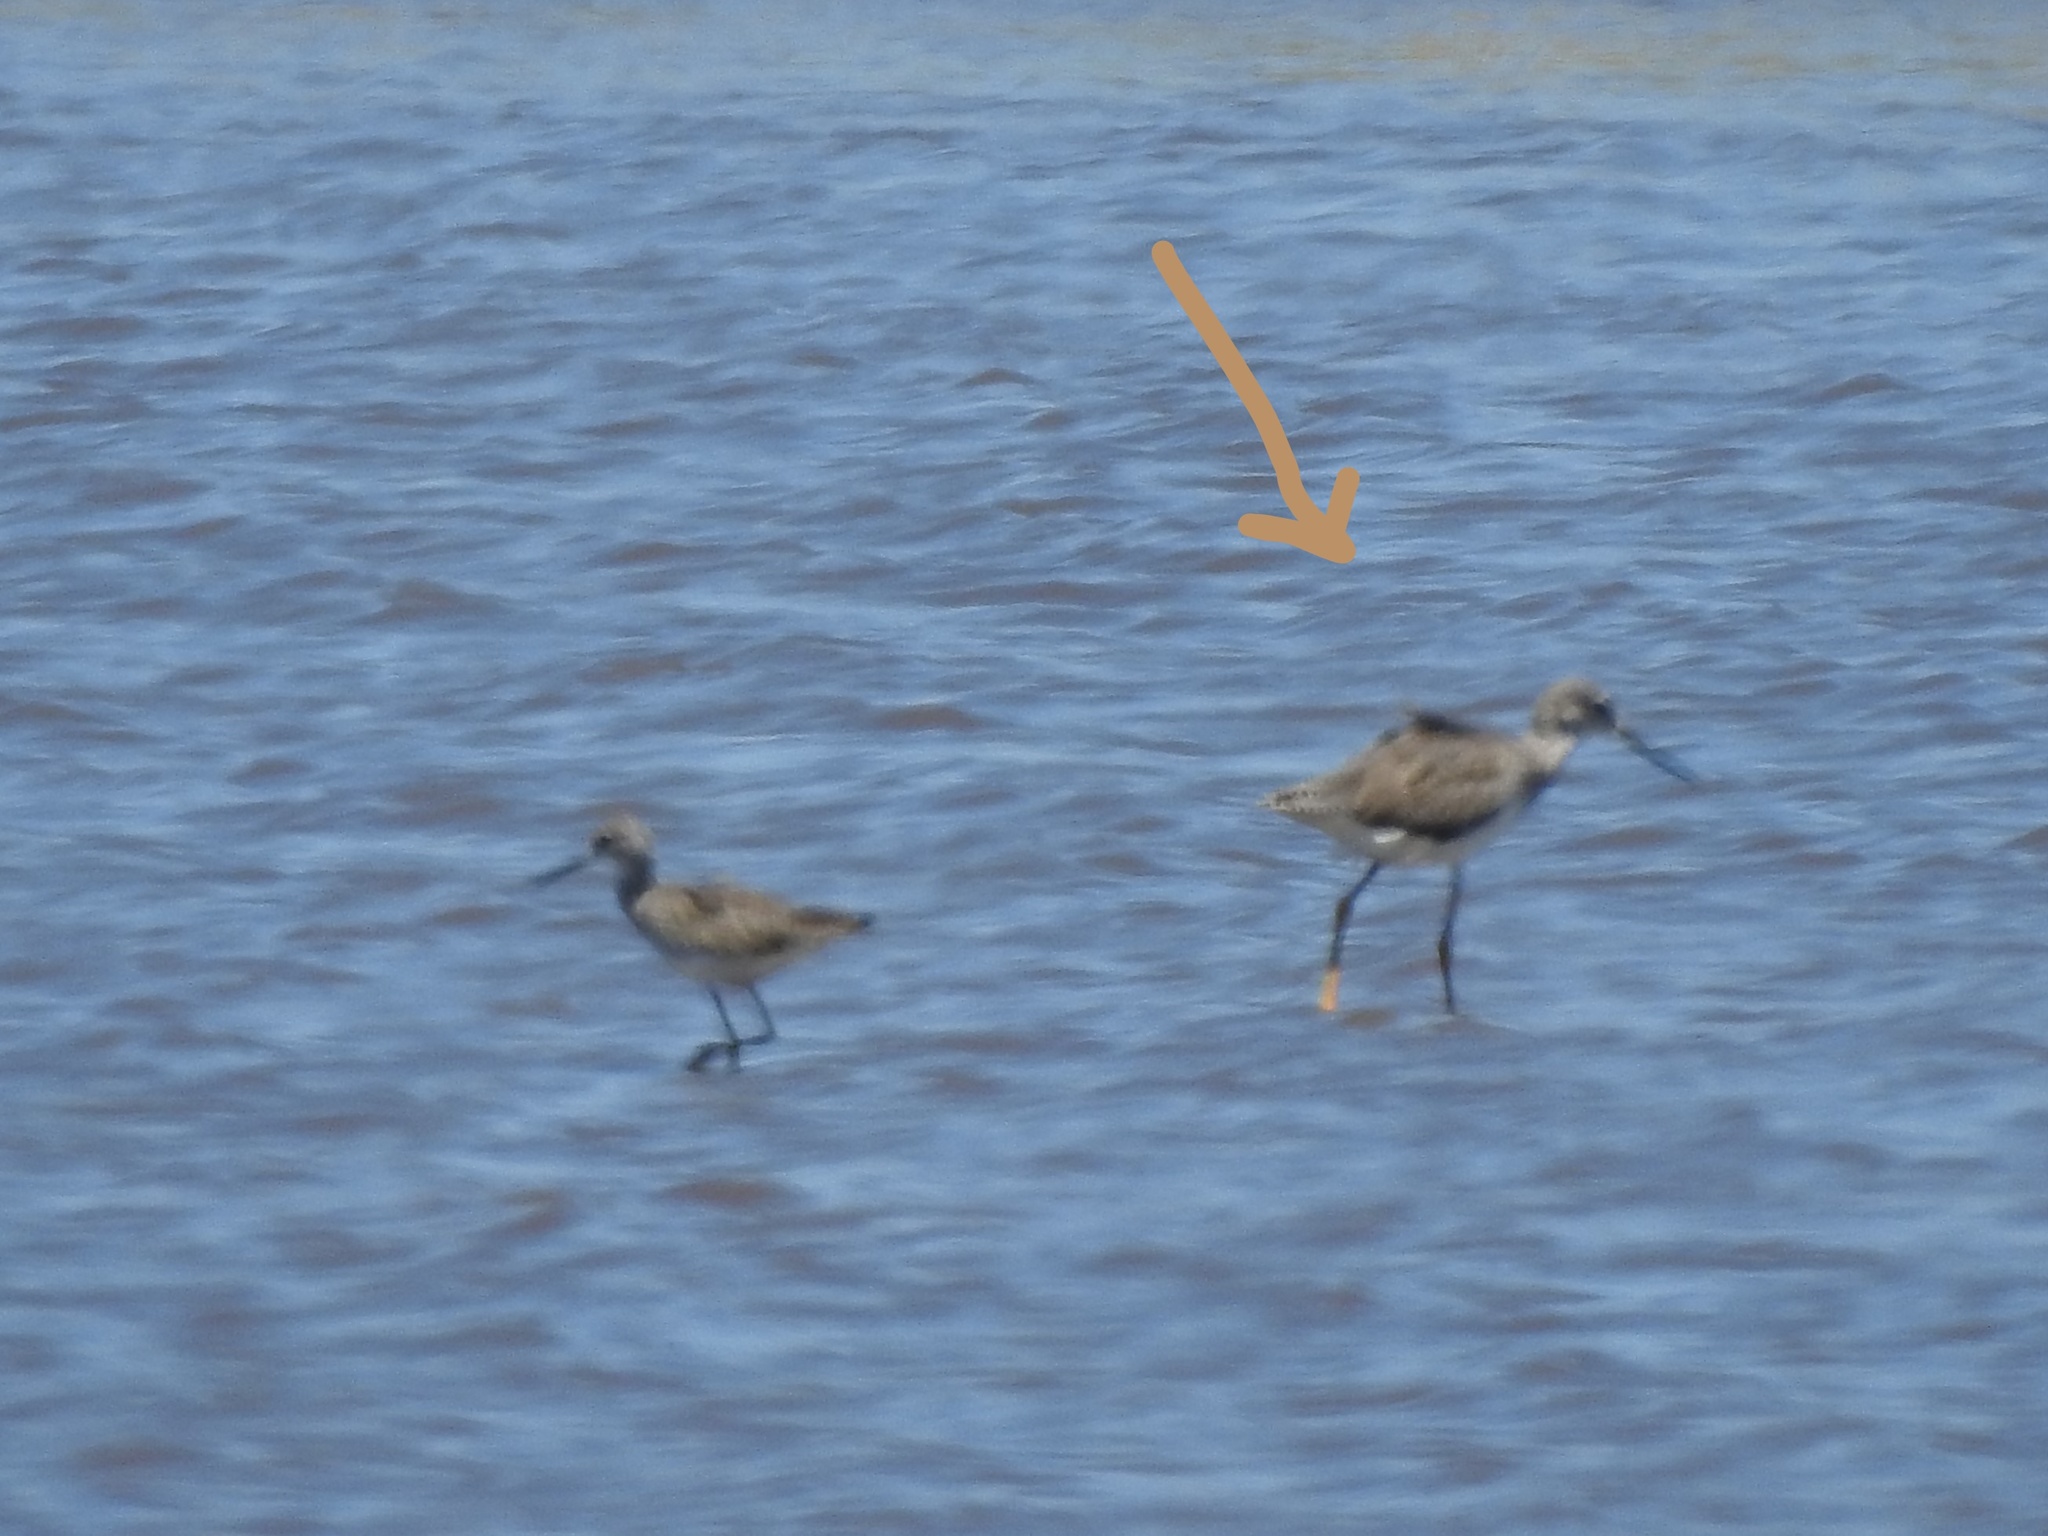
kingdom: Animalia
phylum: Chordata
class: Aves
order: Charadriiformes
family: Scolopacidae
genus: Tringa
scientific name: Tringa melanoleuca
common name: Greater yellowlegs
